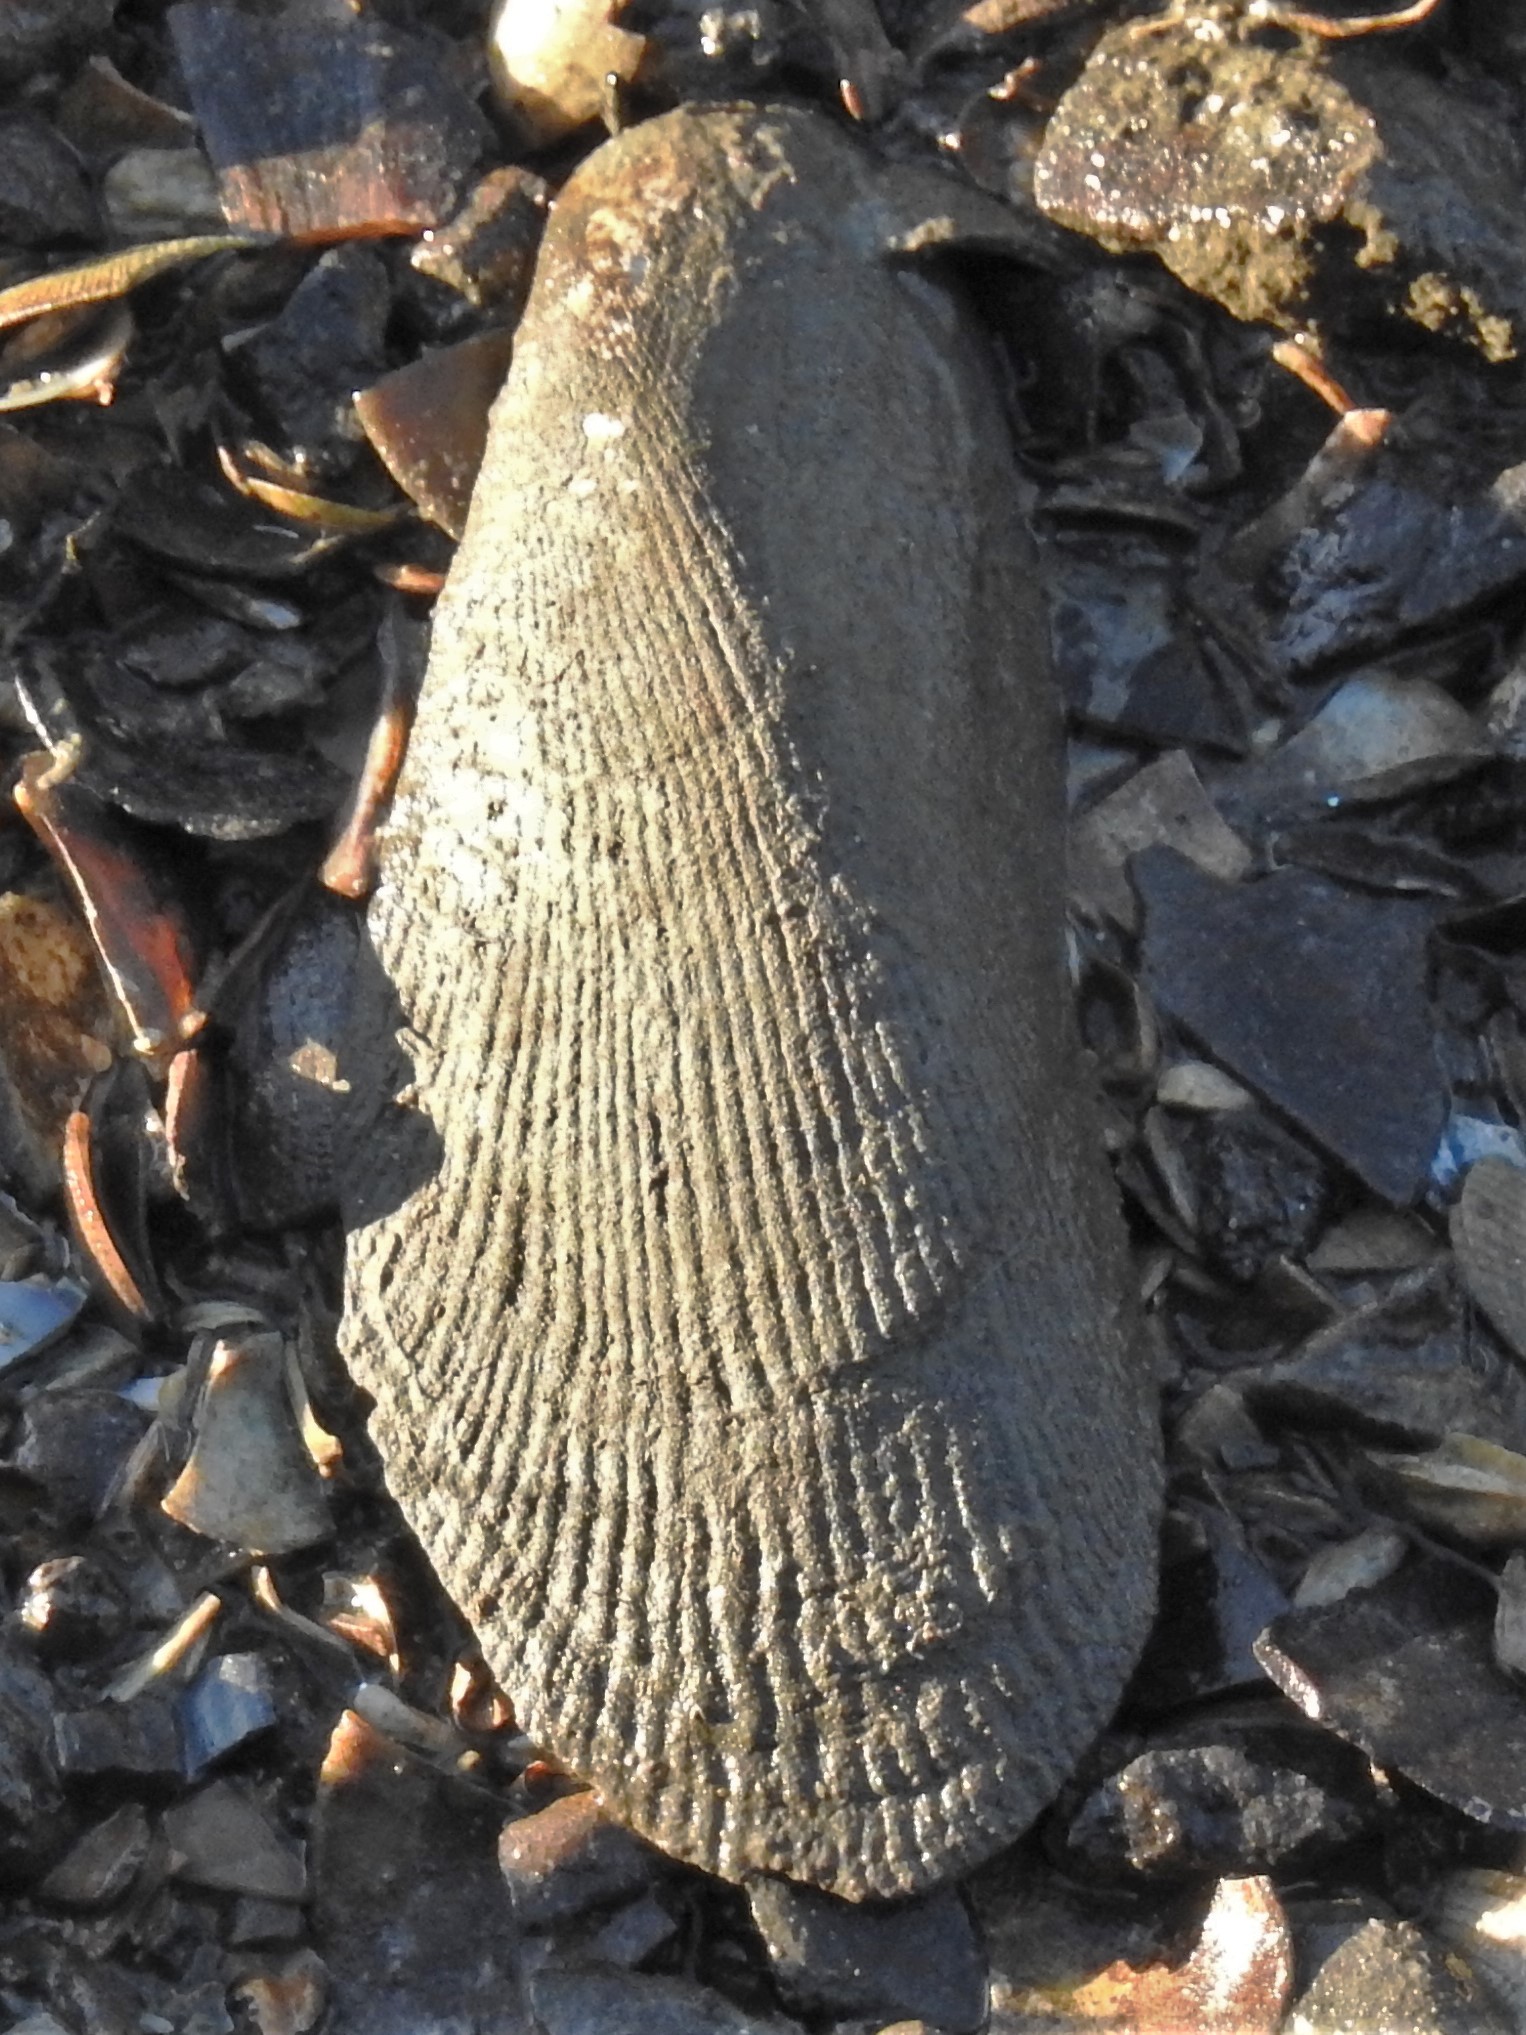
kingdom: Animalia
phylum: Mollusca
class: Bivalvia
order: Mytilida
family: Mytilidae
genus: Geukensia
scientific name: Geukensia demissa
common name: Ribbed mussel
